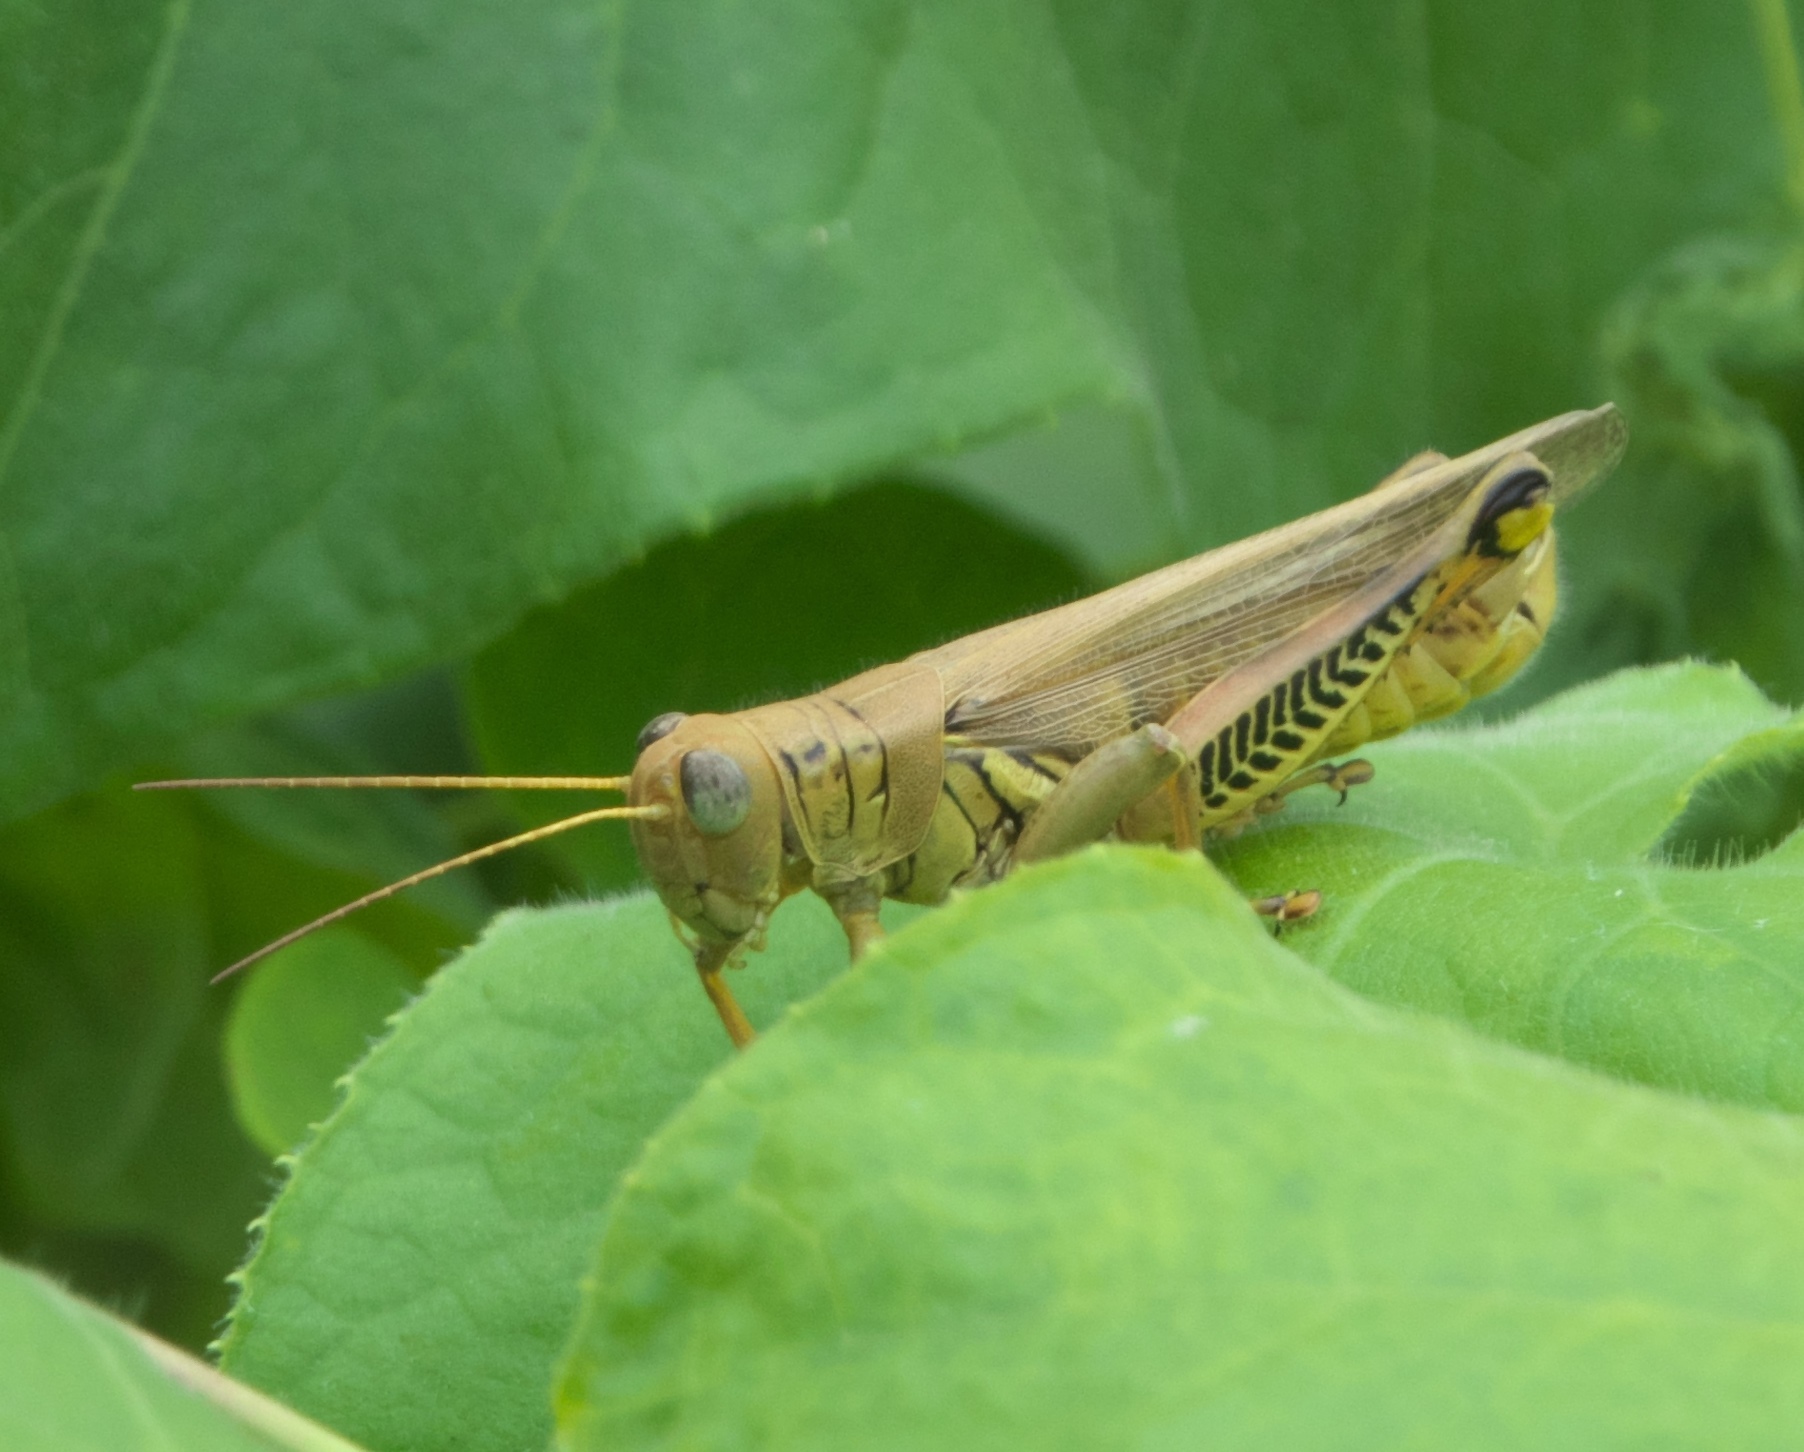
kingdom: Animalia
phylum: Arthropoda
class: Insecta
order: Orthoptera
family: Acrididae
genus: Melanoplus
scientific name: Melanoplus differentialis
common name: Differential grasshopper
